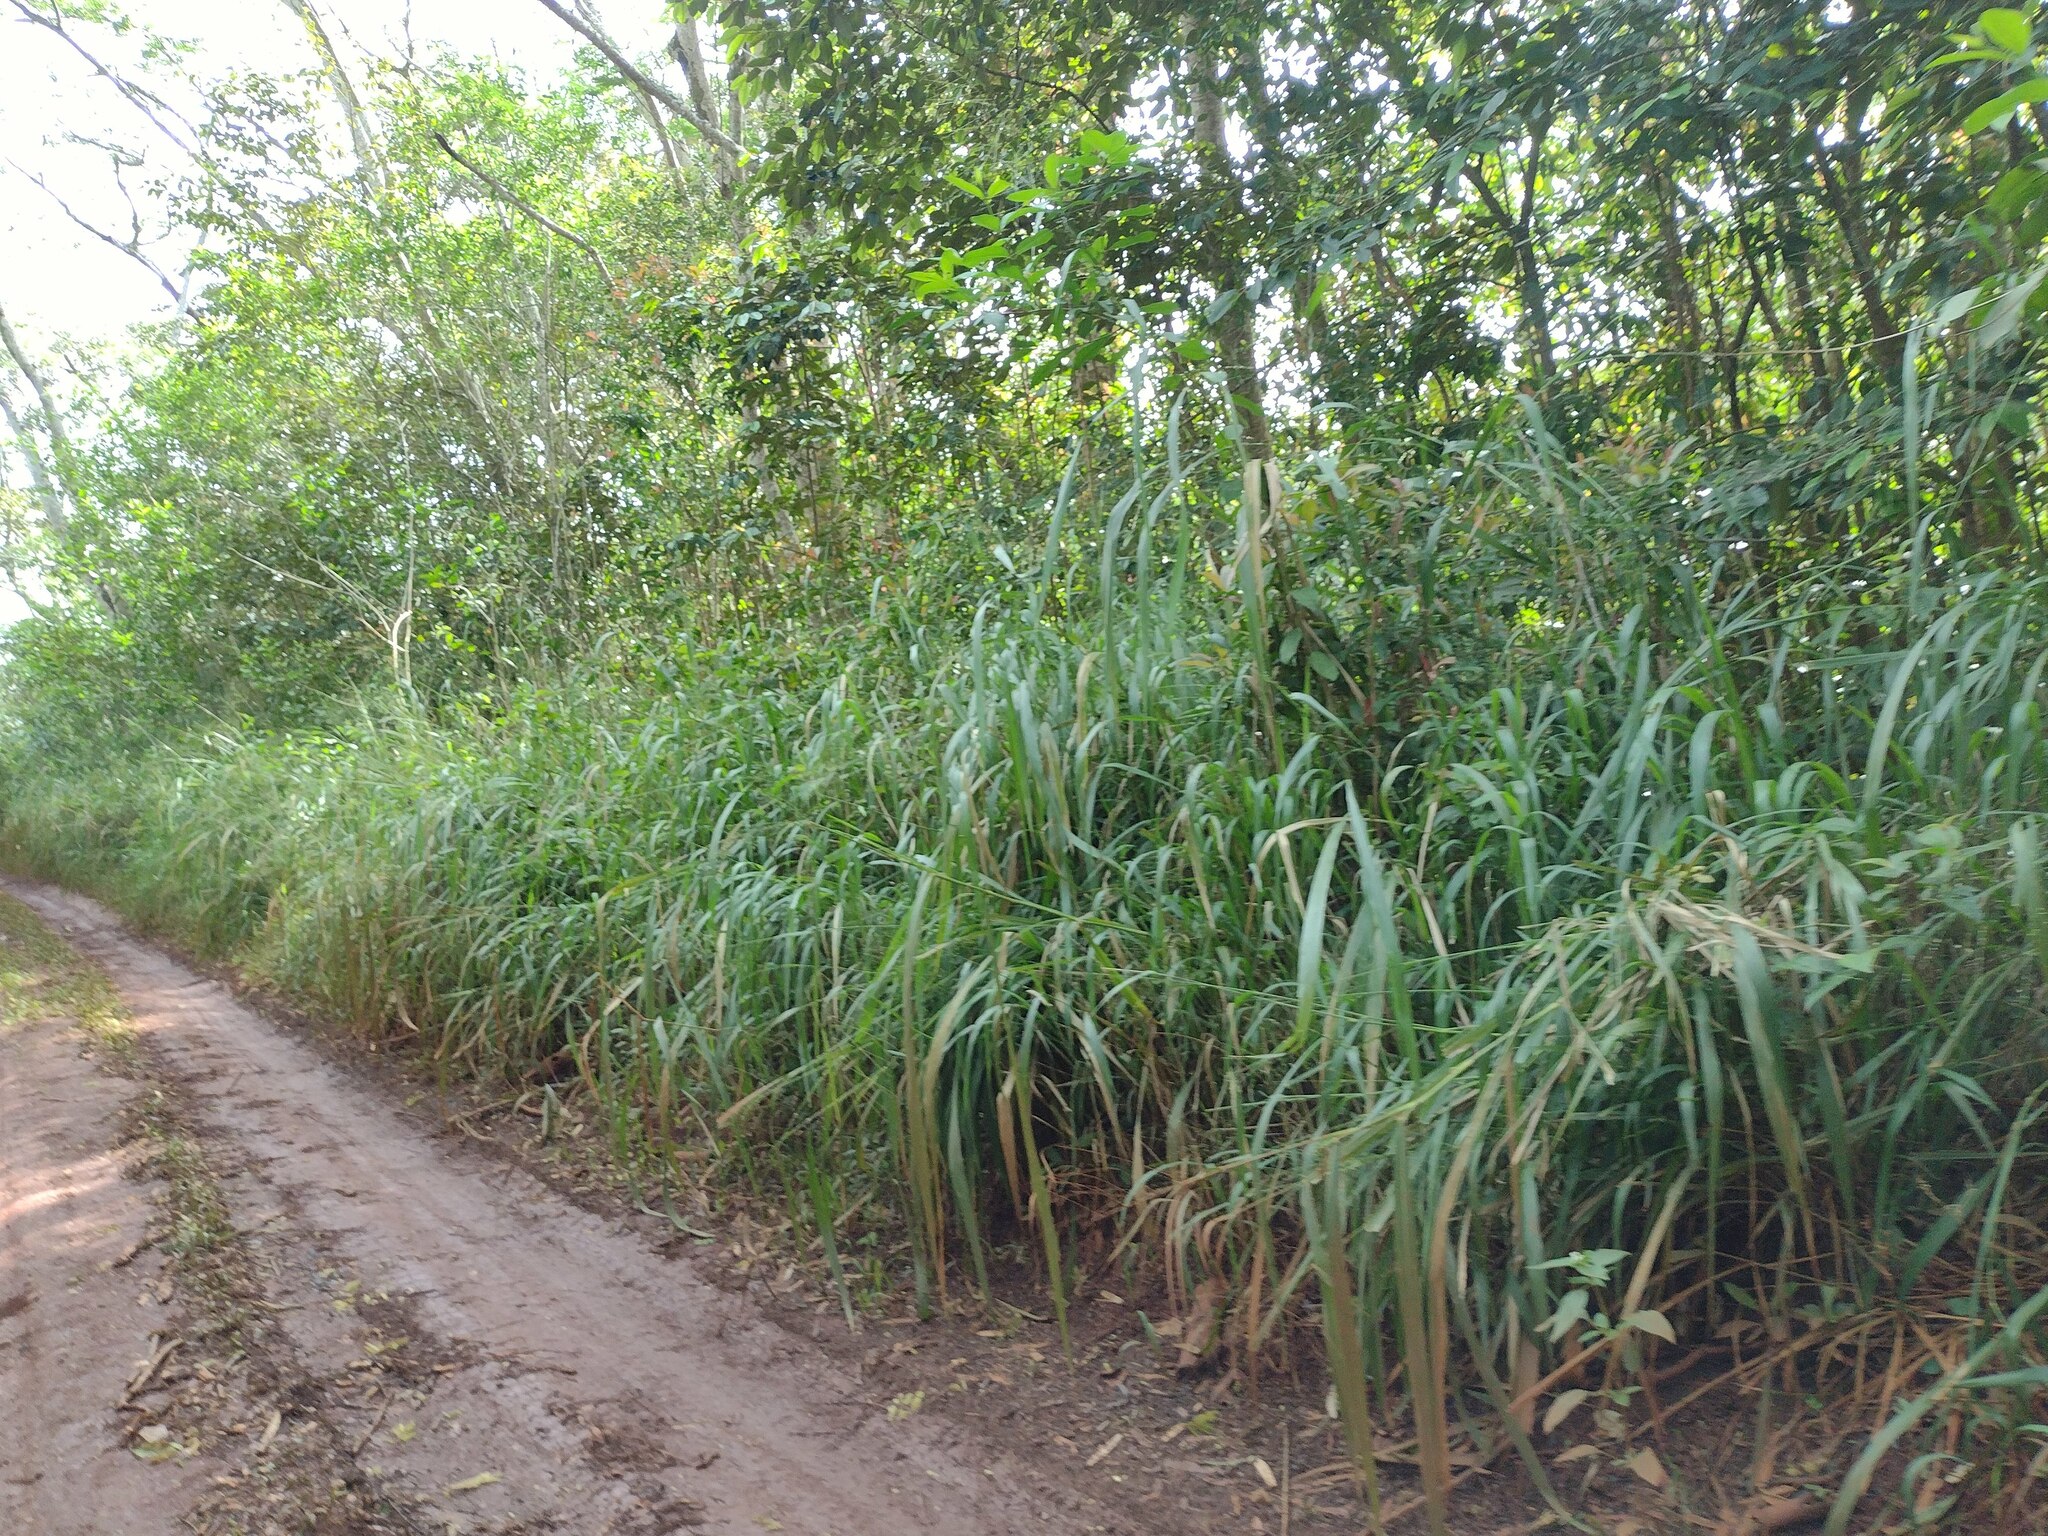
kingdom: Plantae
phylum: Tracheophyta
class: Liliopsida
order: Poales
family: Poaceae
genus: Megathyrsus
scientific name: Megathyrsus maximus
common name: Guineagrass
